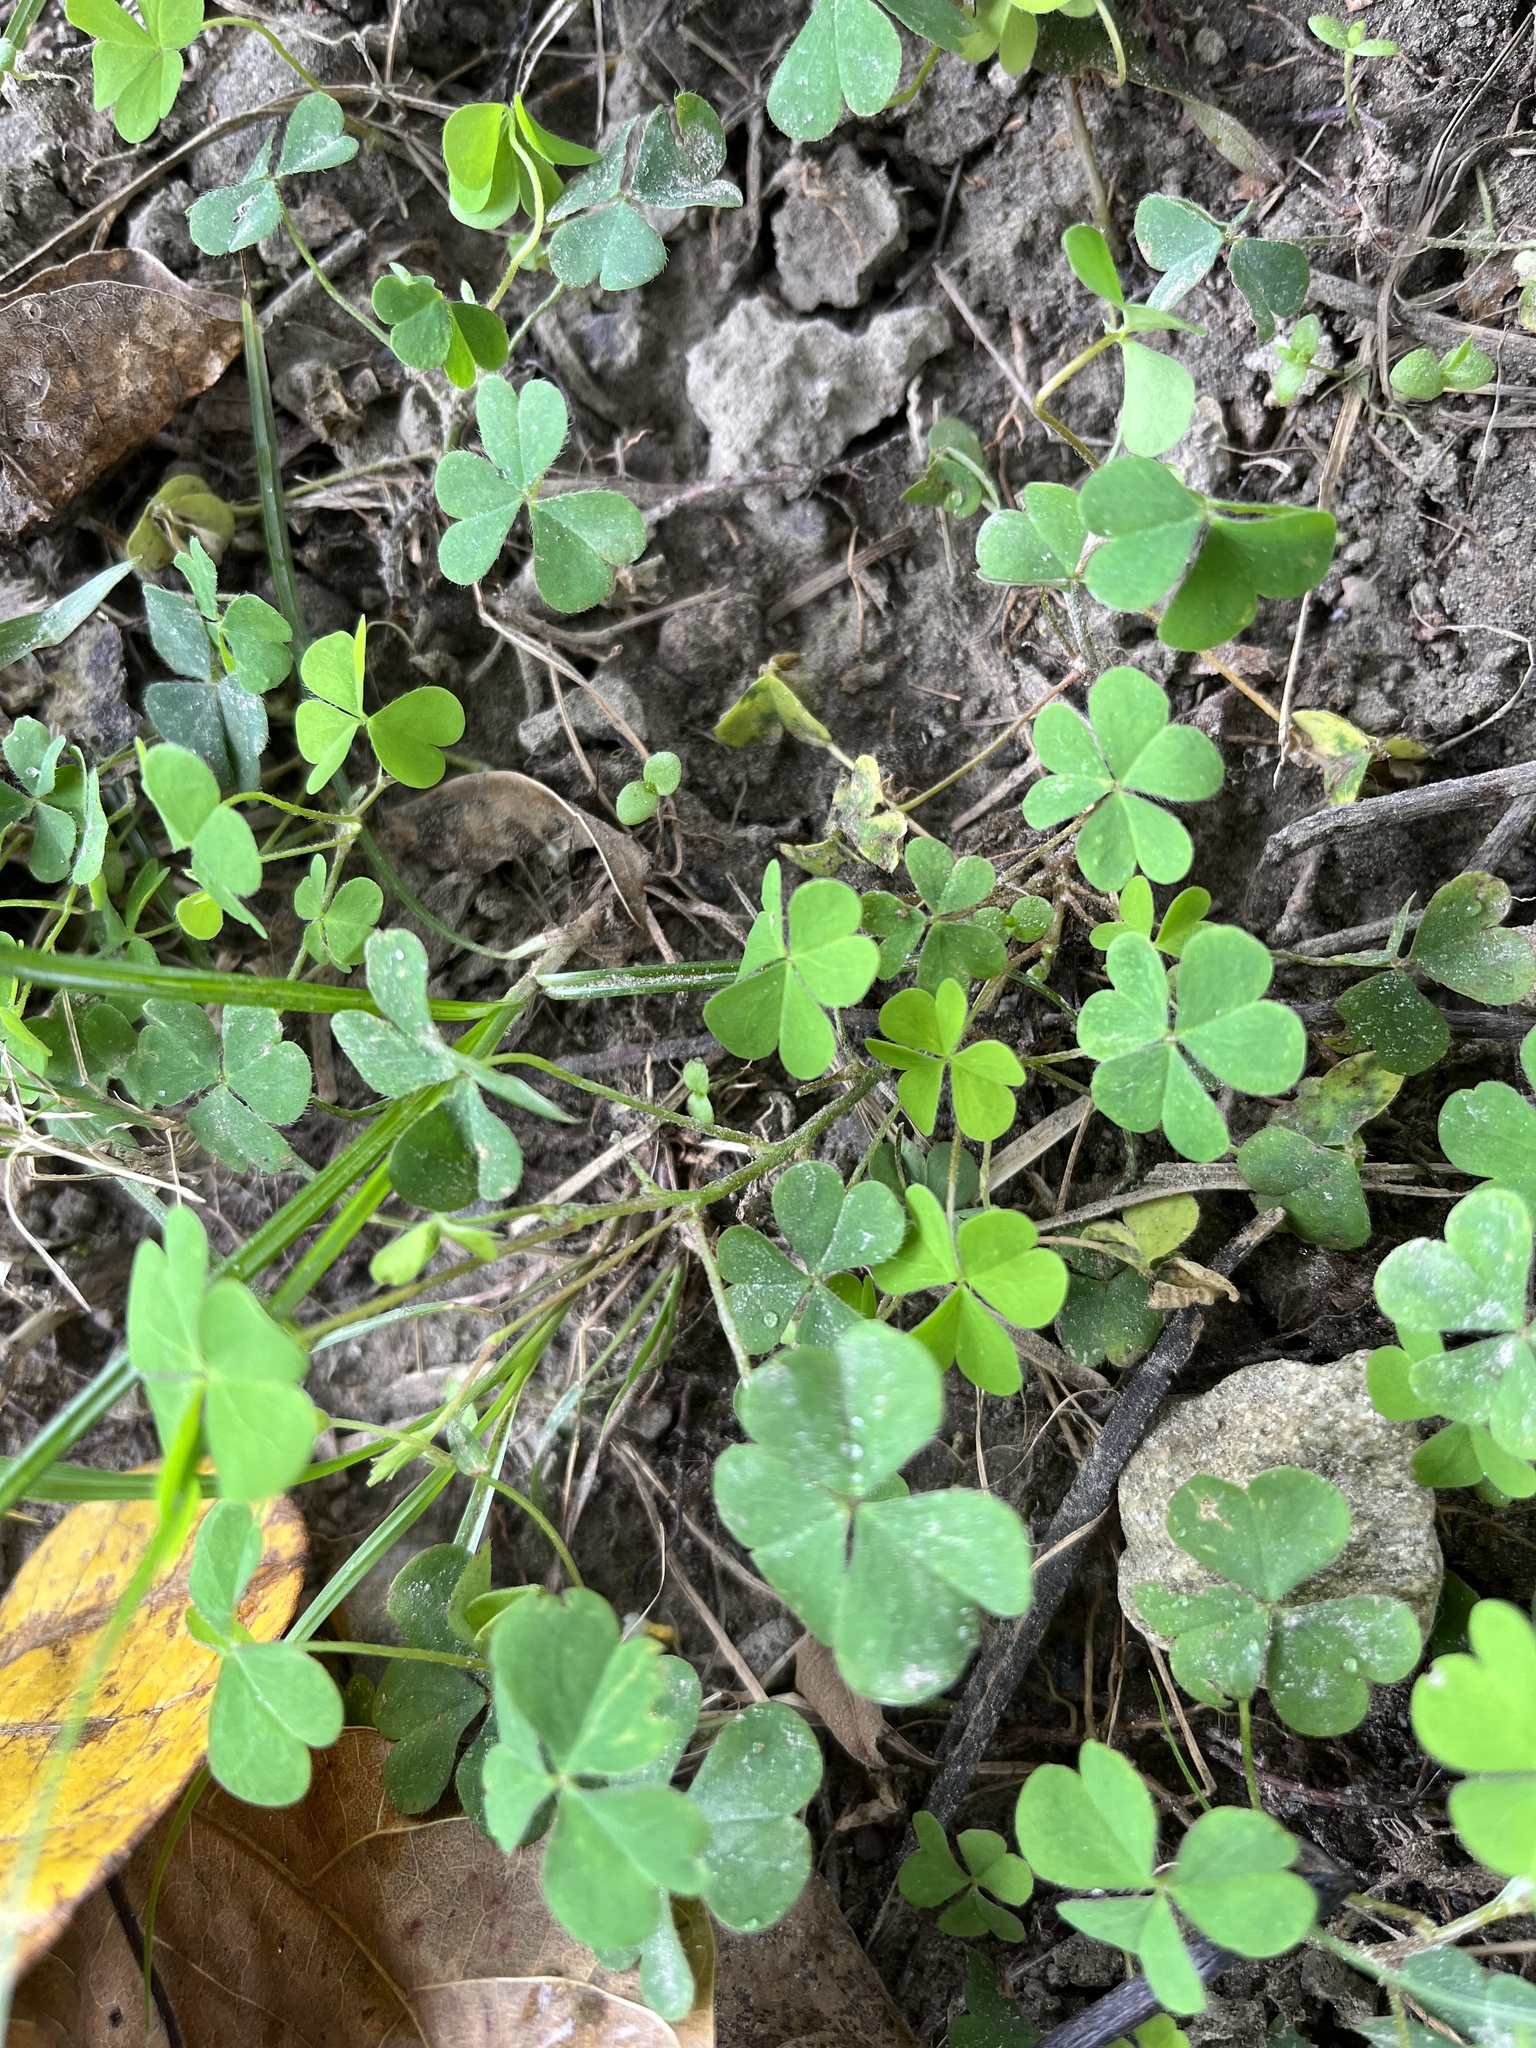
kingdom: Plantae
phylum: Tracheophyta
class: Magnoliopsida
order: Oxalidales
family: Oxalidaceae
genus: Oxalis
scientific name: Oxalis corniculata
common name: Procumbent yellow-sorrel
